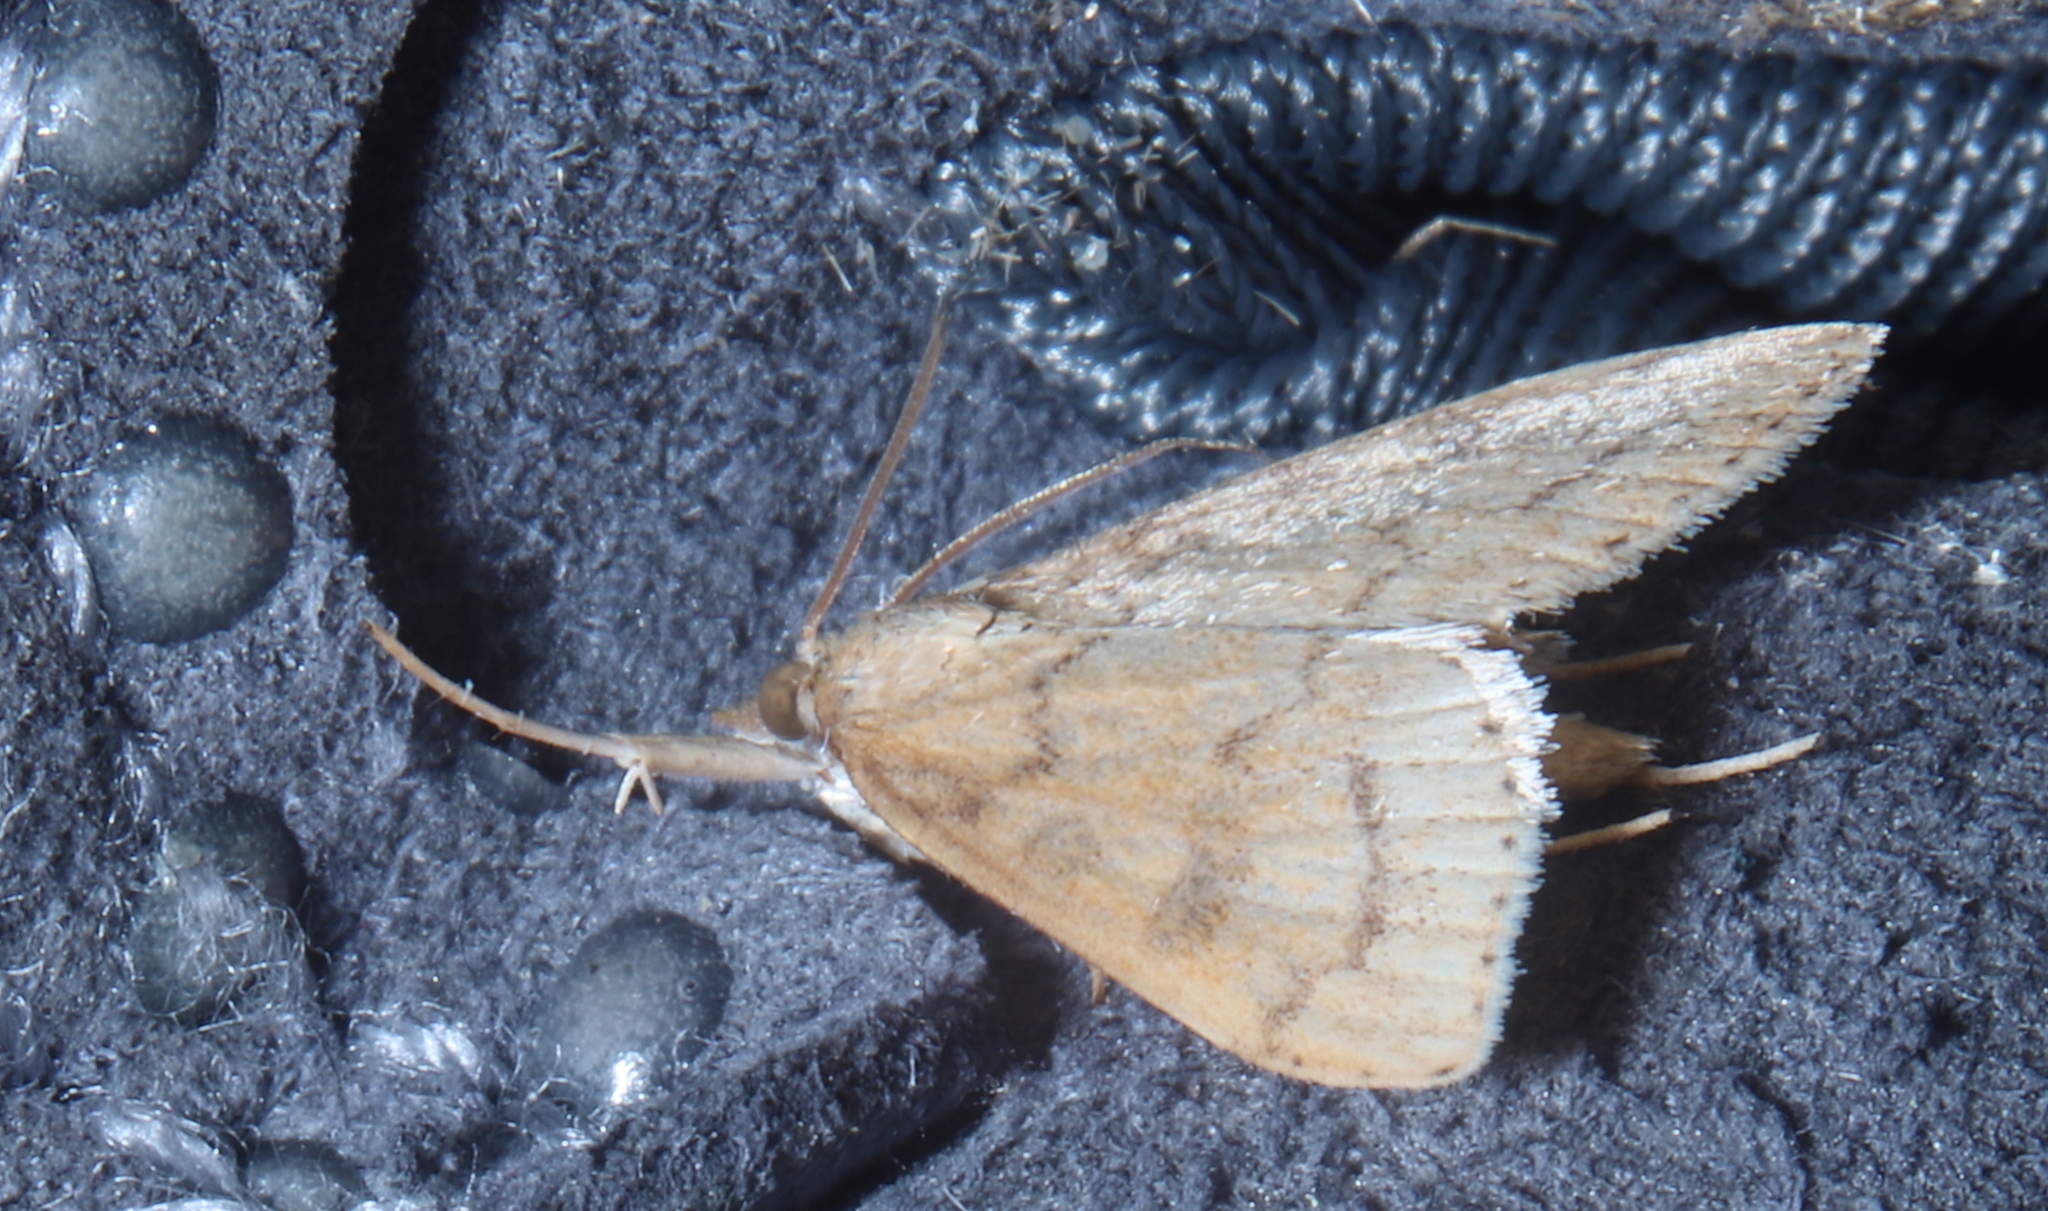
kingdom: Animalia
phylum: Arthropoda
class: Insecta
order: Lepidoptera
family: Crambidae
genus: Udea
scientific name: Udea rubigalis
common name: Celery leaftier moth
